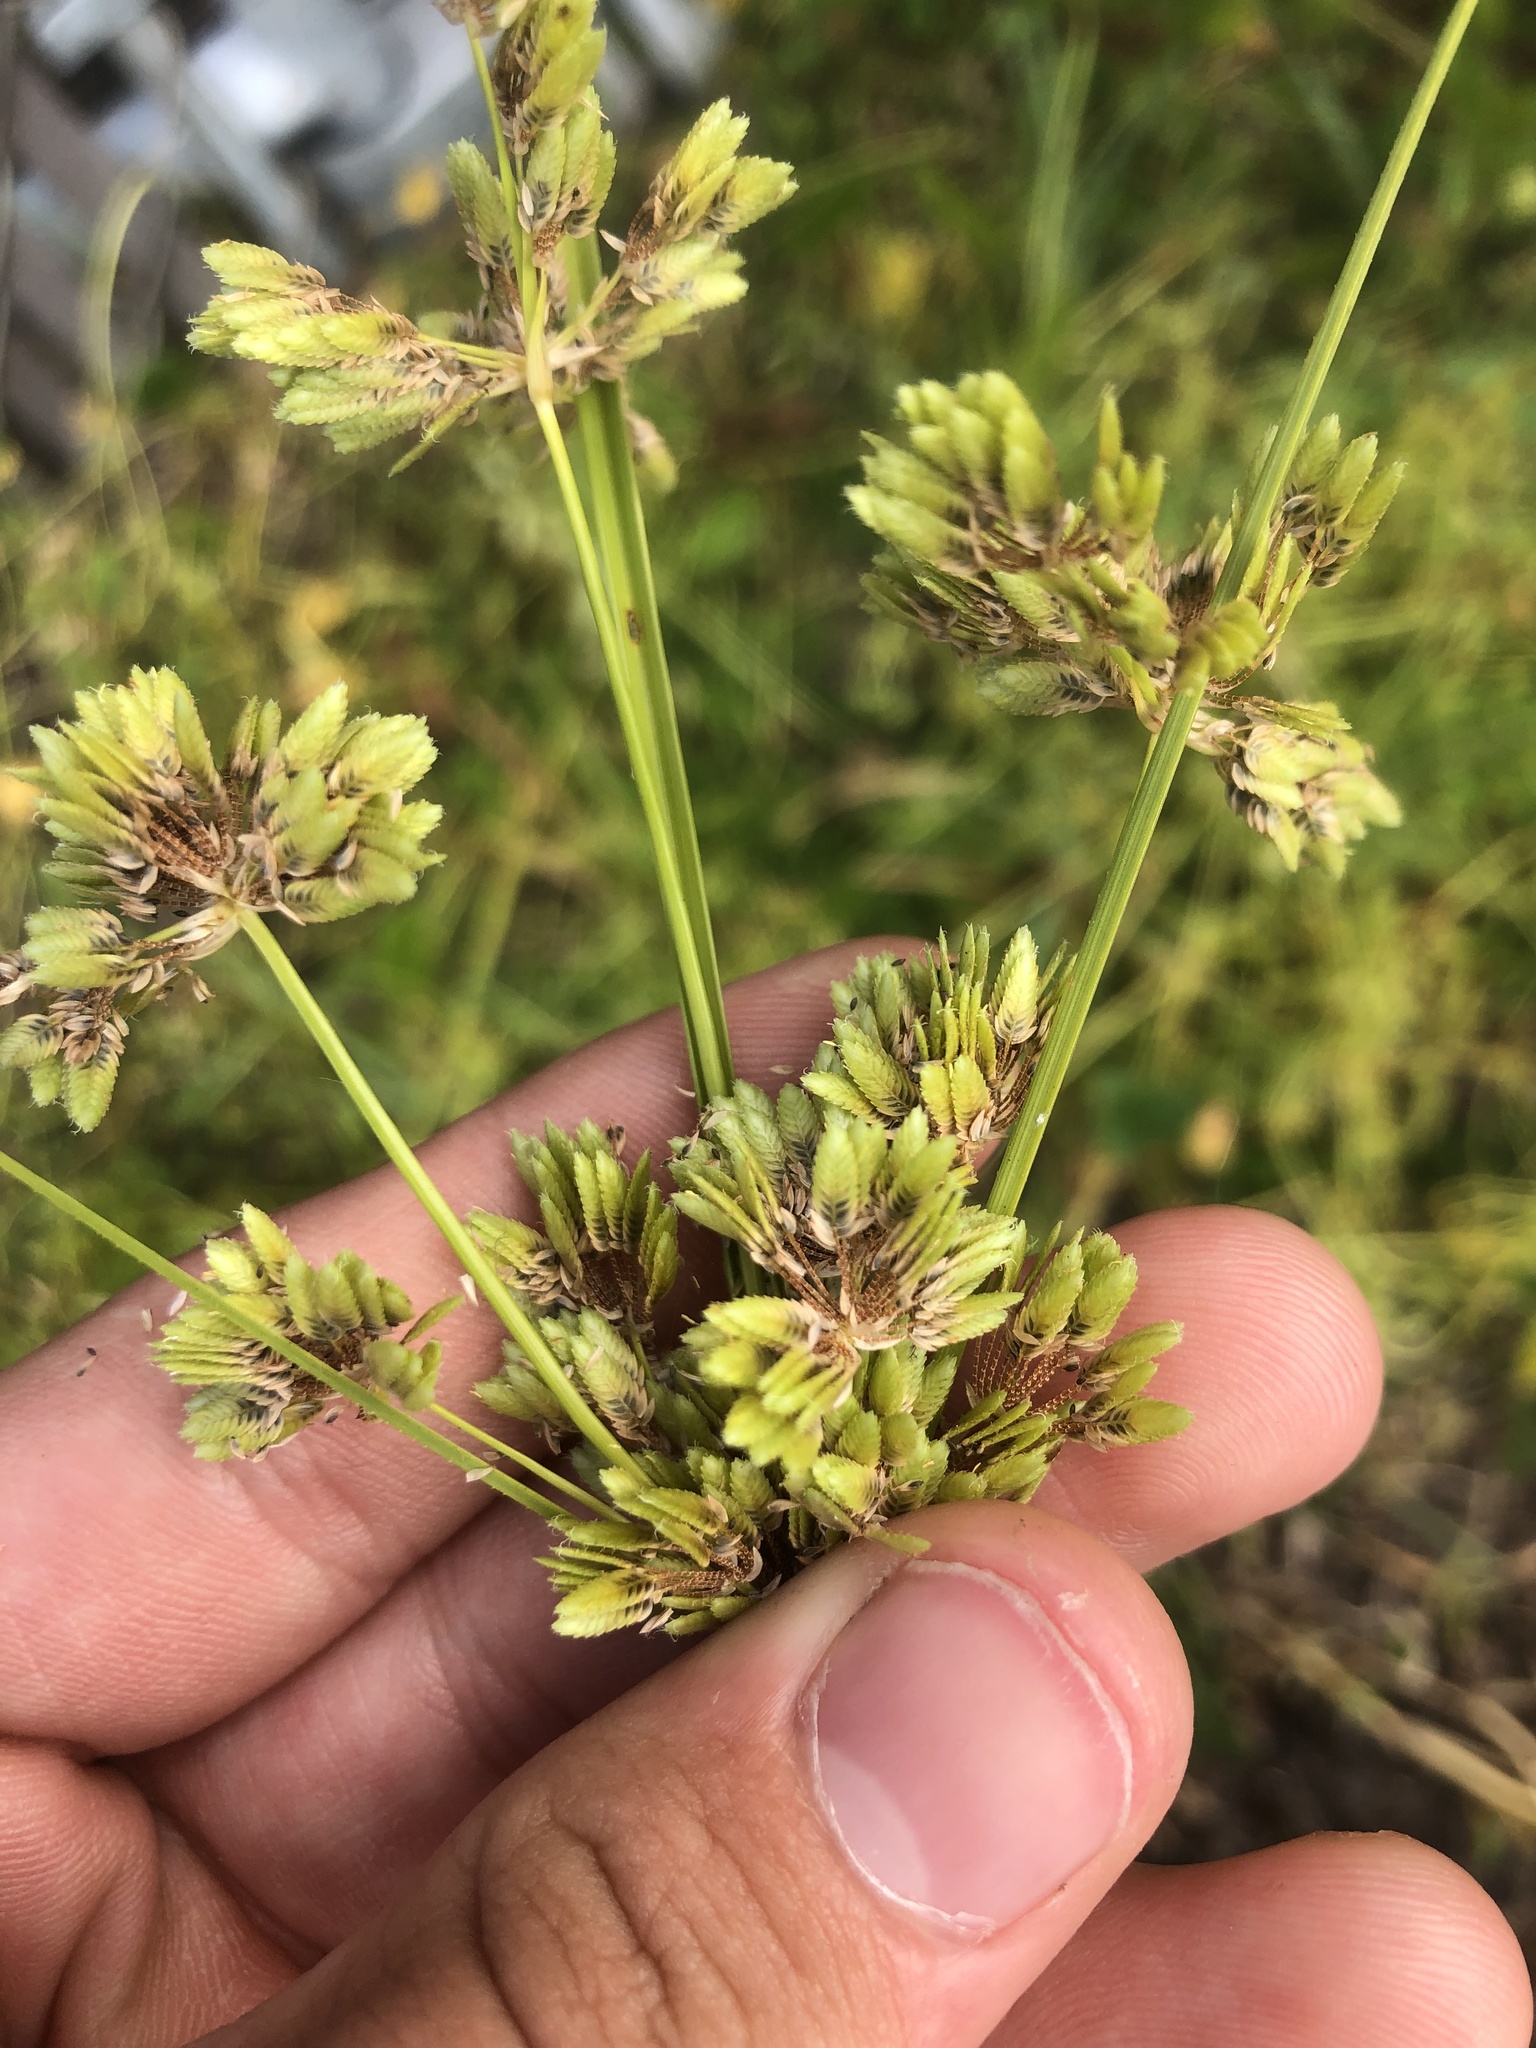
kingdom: Plantae
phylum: Tracheophyta
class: Liliopsida
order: Poales
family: Cyperaceae
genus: Cyperus
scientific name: Cyperus surinamensis
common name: Tropical flat sedge
